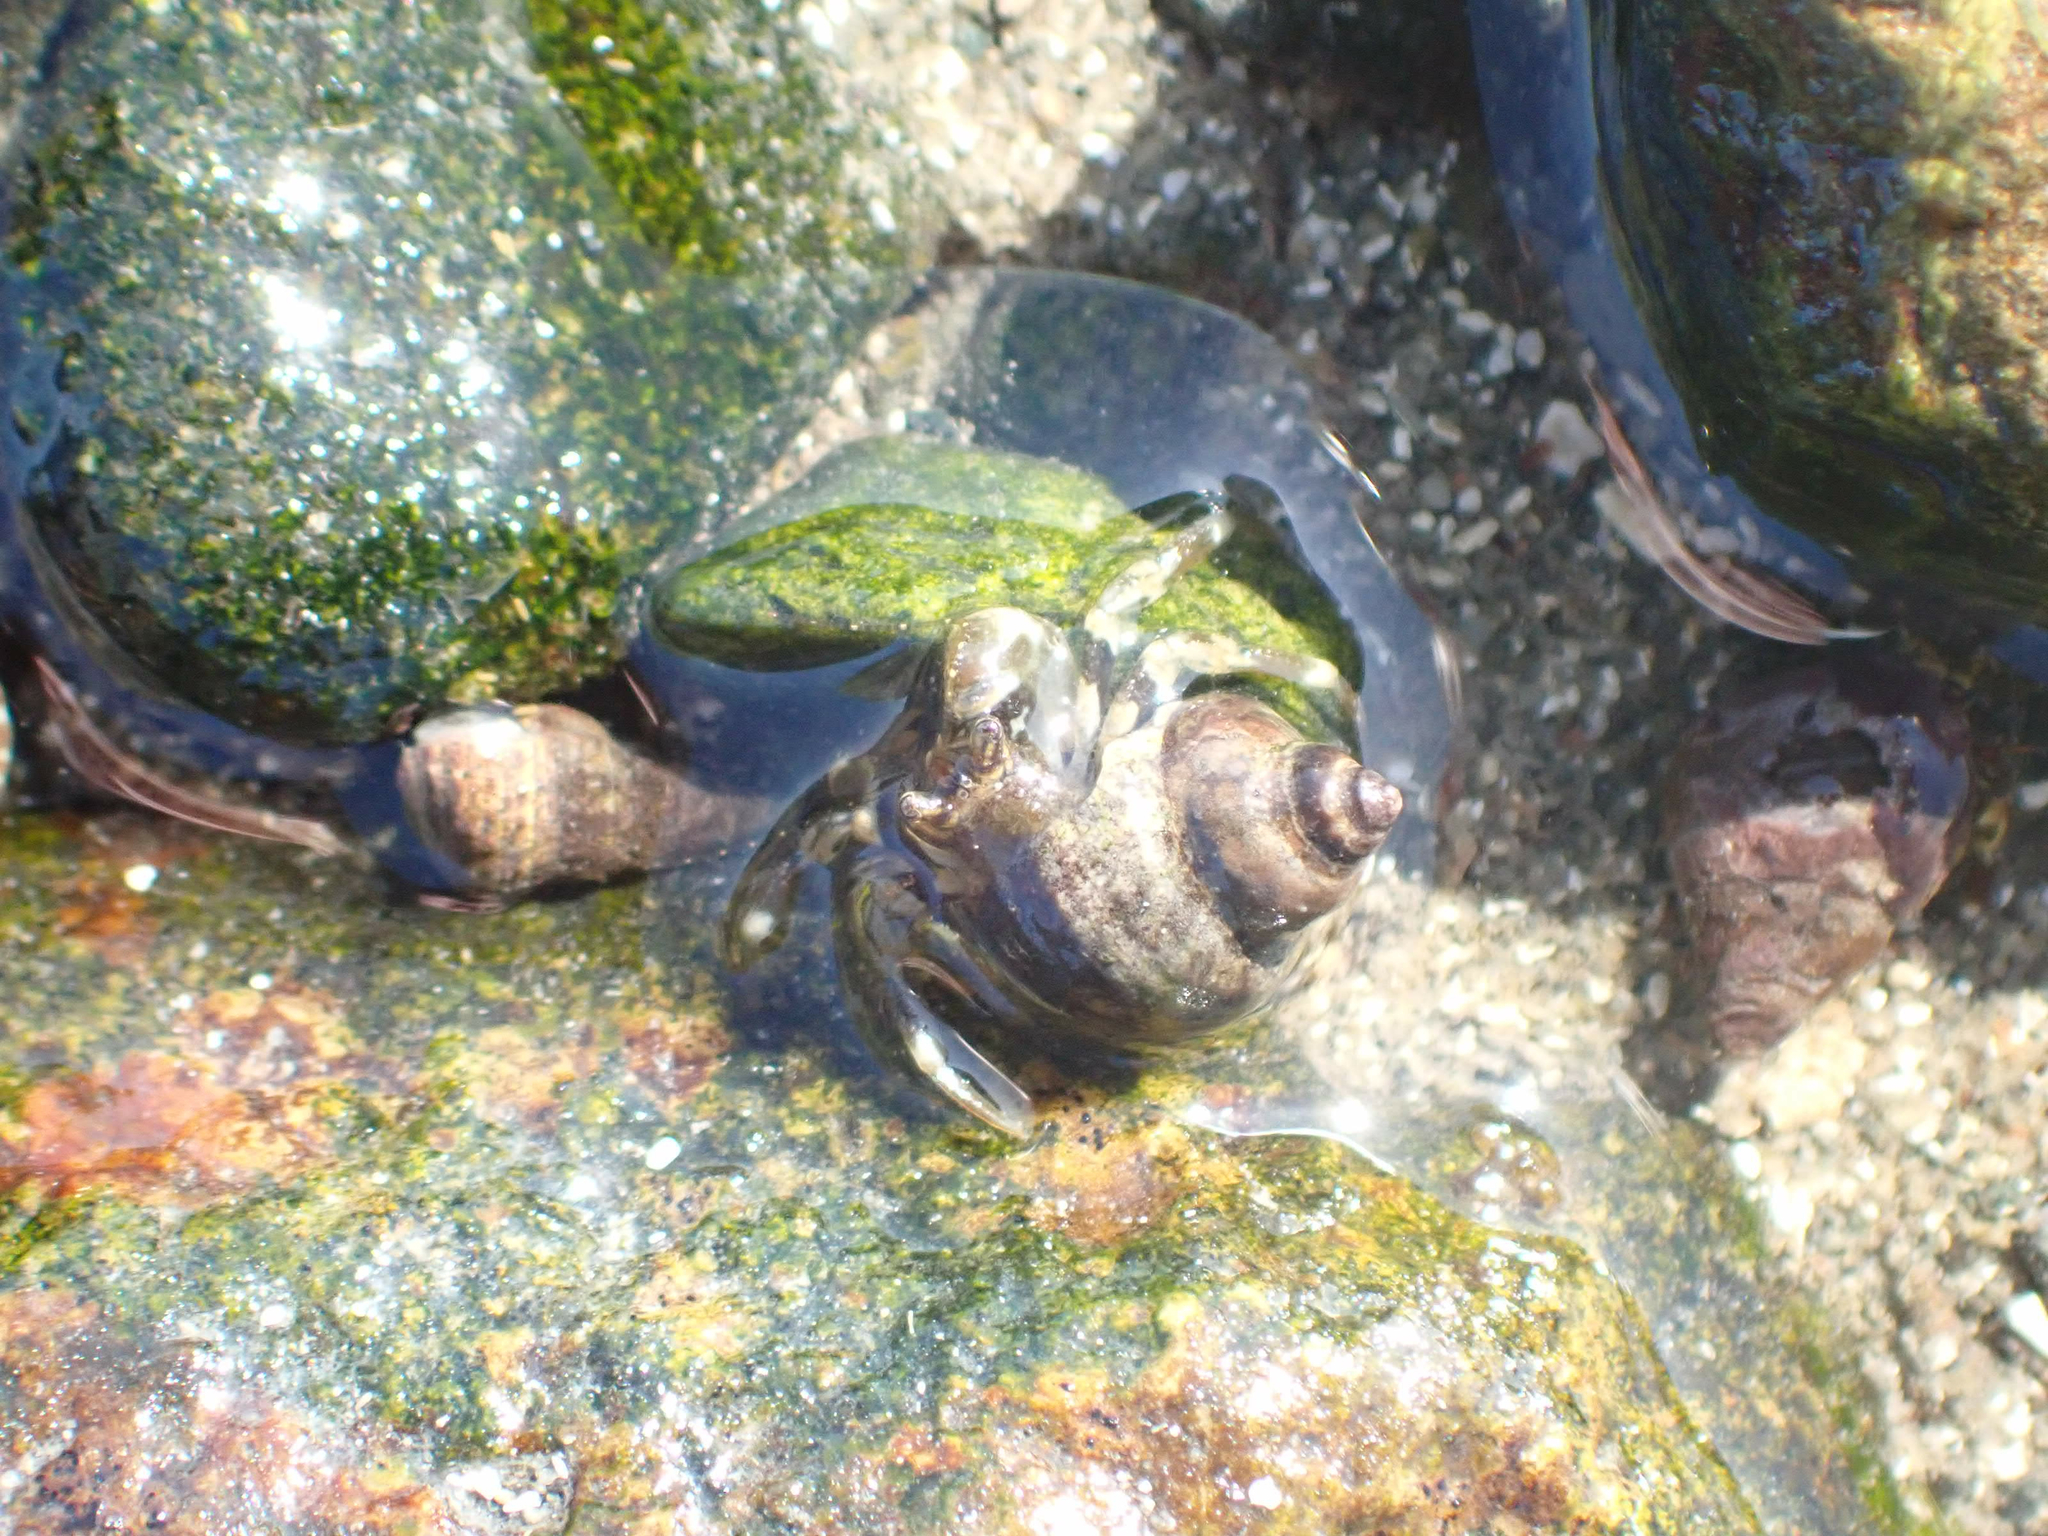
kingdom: Animalia
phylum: Arthropoda
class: Malacostraca
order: Decapoda
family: Paguridae
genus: Pagurus
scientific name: Pagurus hirsutiusculus
